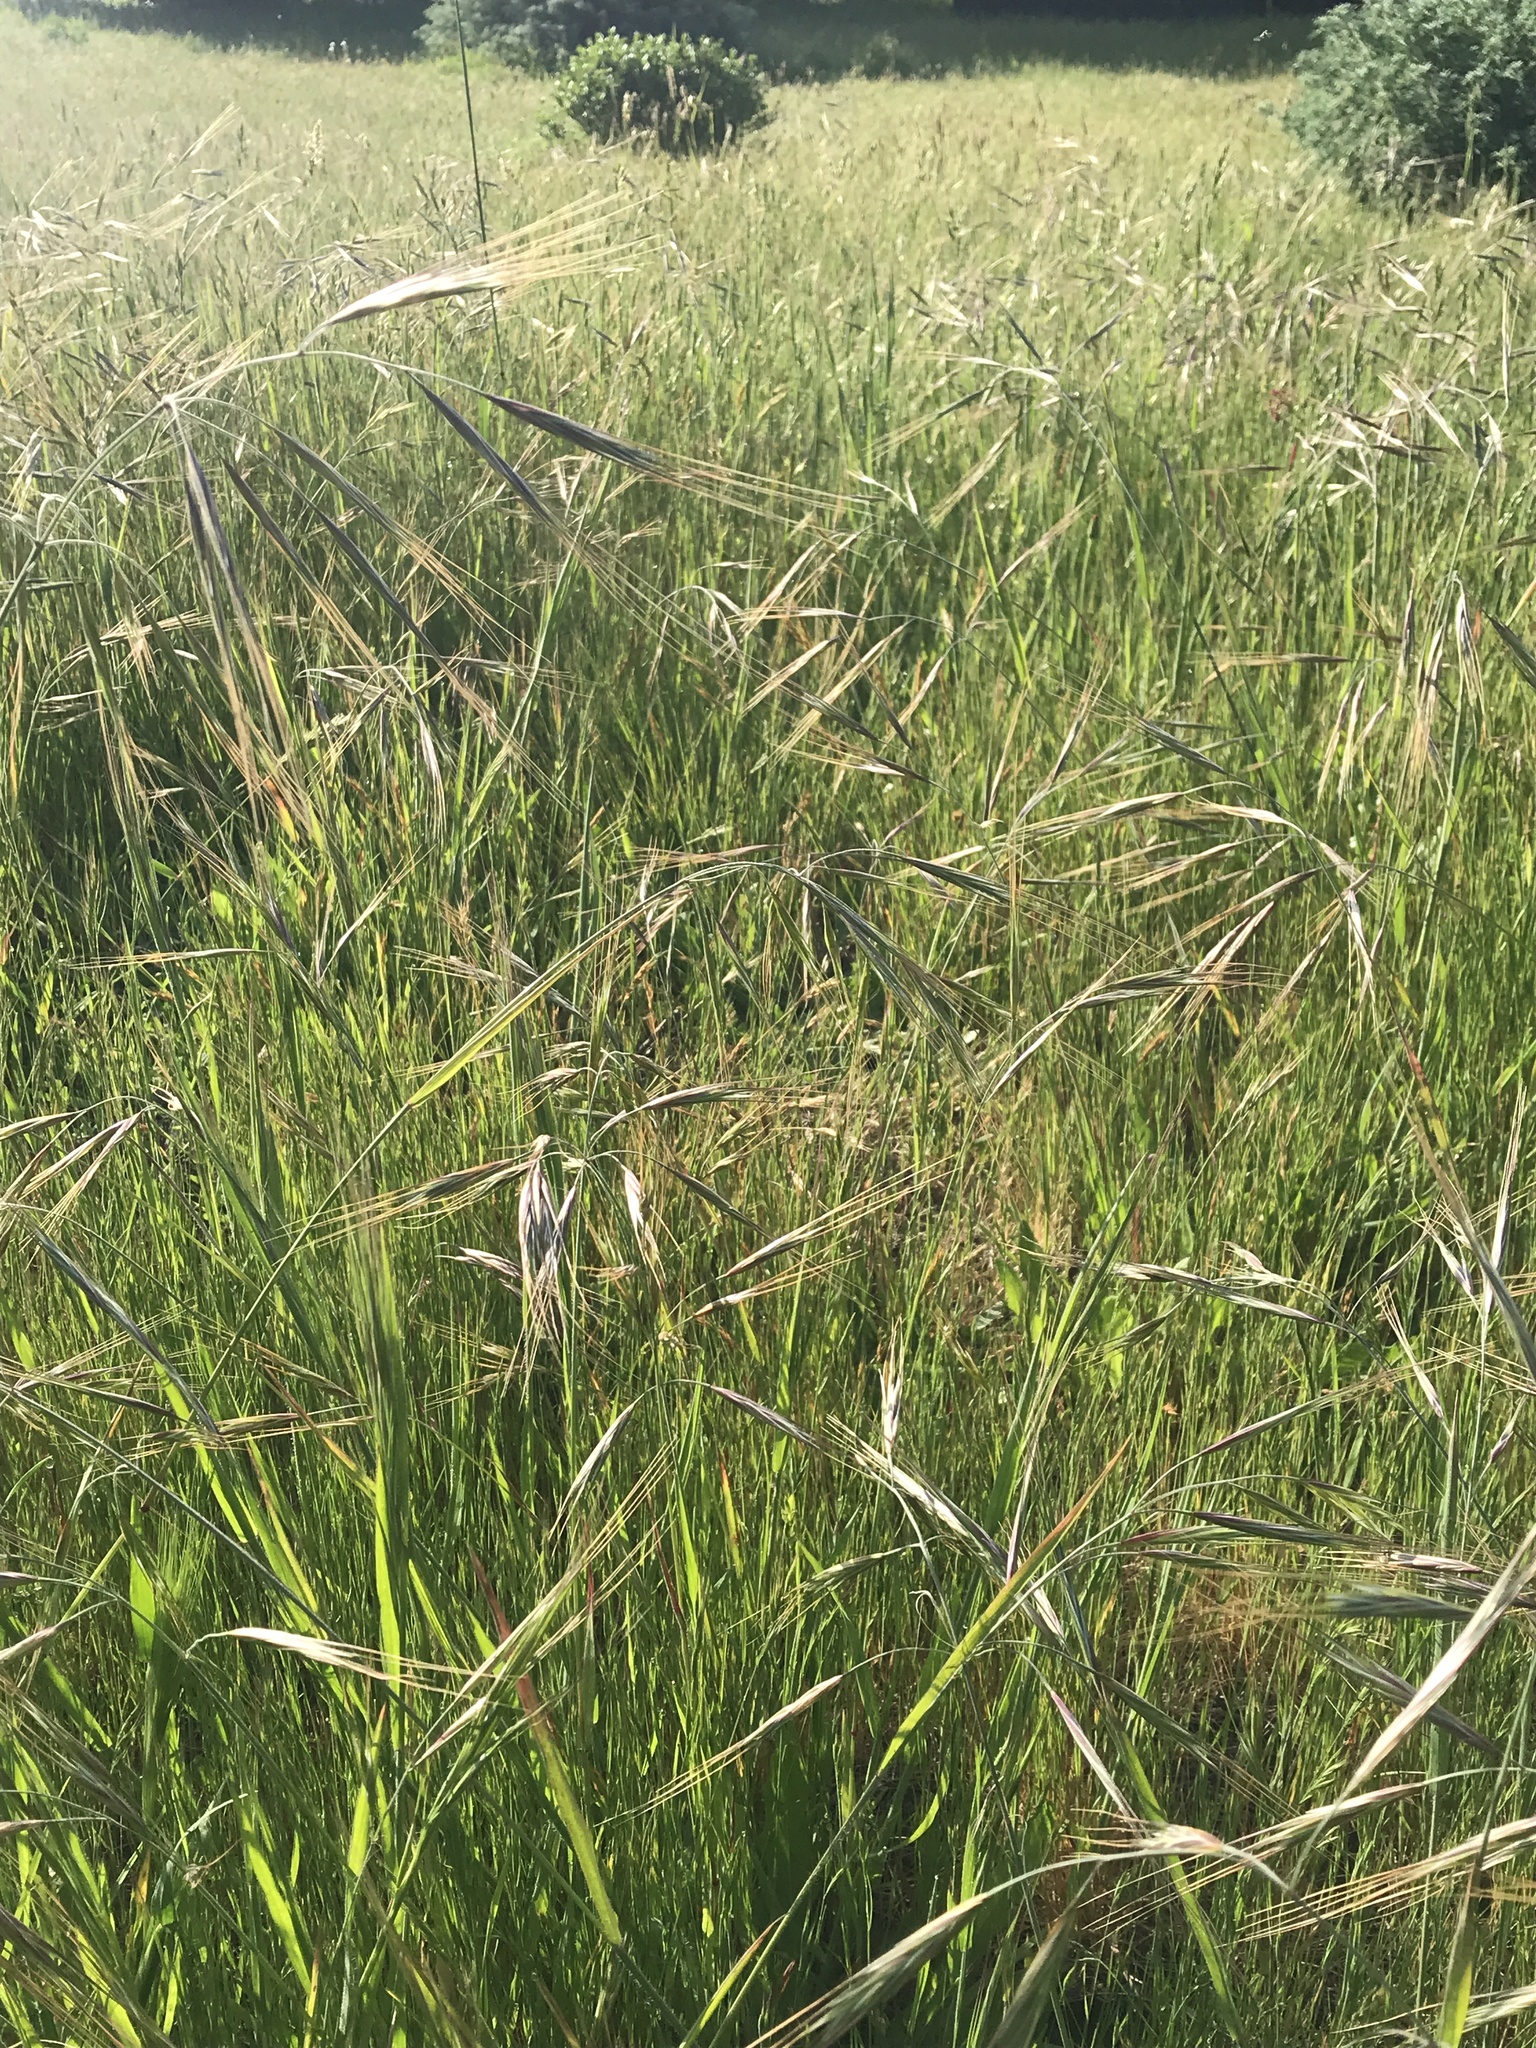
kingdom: Plantae
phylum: Tracheophyta
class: Liliopsida
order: Poales
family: Poaceae
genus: Bromus
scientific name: Bromus diandrus
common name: Ripgut brome
